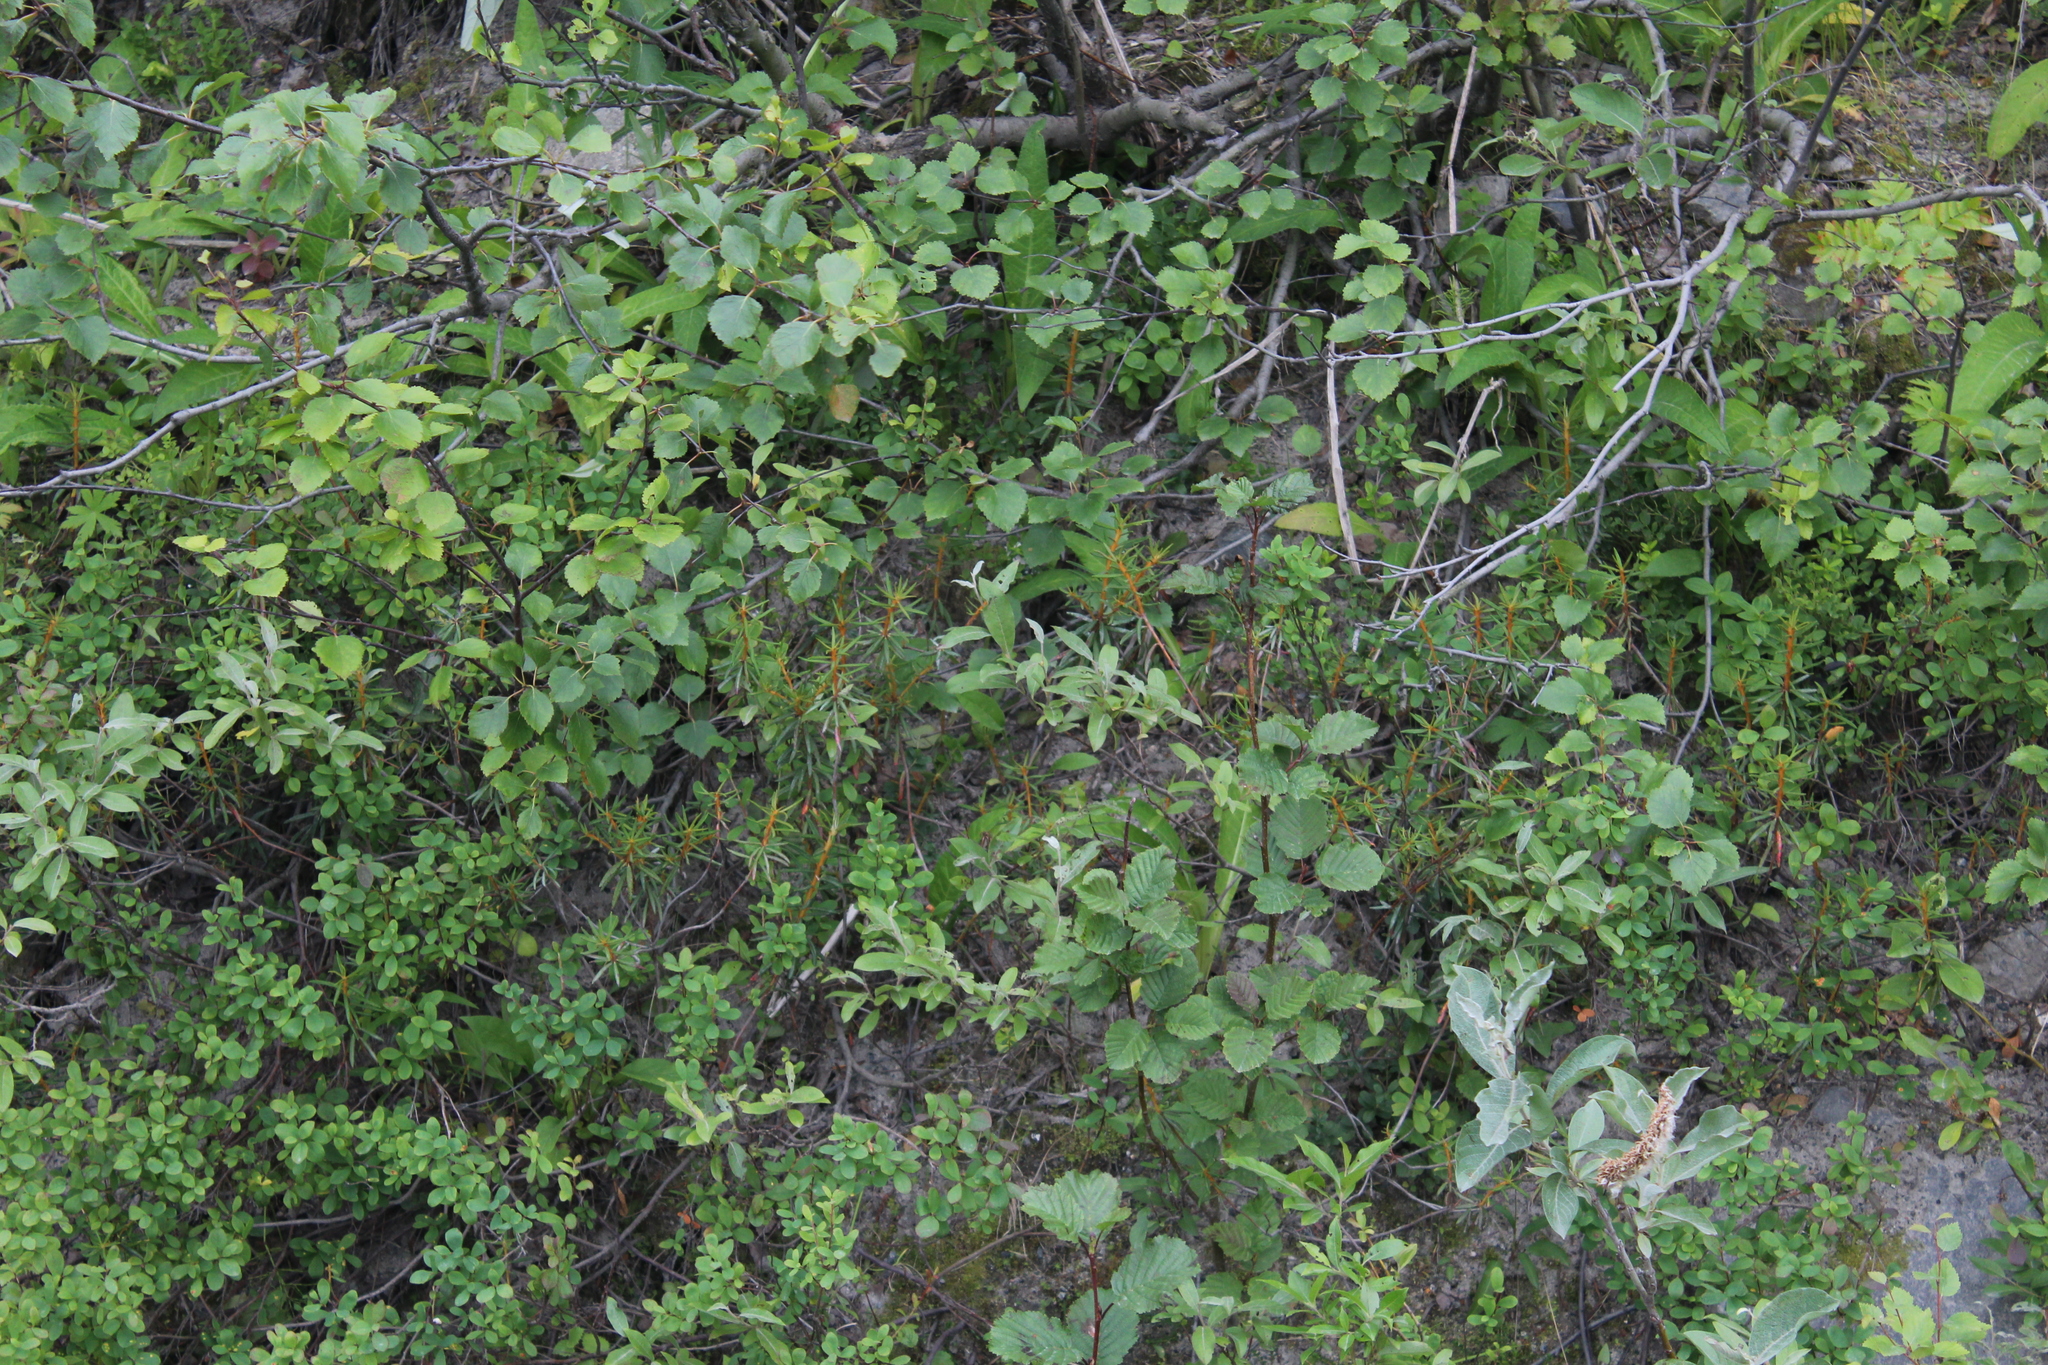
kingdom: Plantae
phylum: Tracheophyta
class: Magnoliopsida
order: Ericales
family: Ericaceae
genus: Rhododendron
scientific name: Rhododendron tomentosum
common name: Marsh labrador tea
